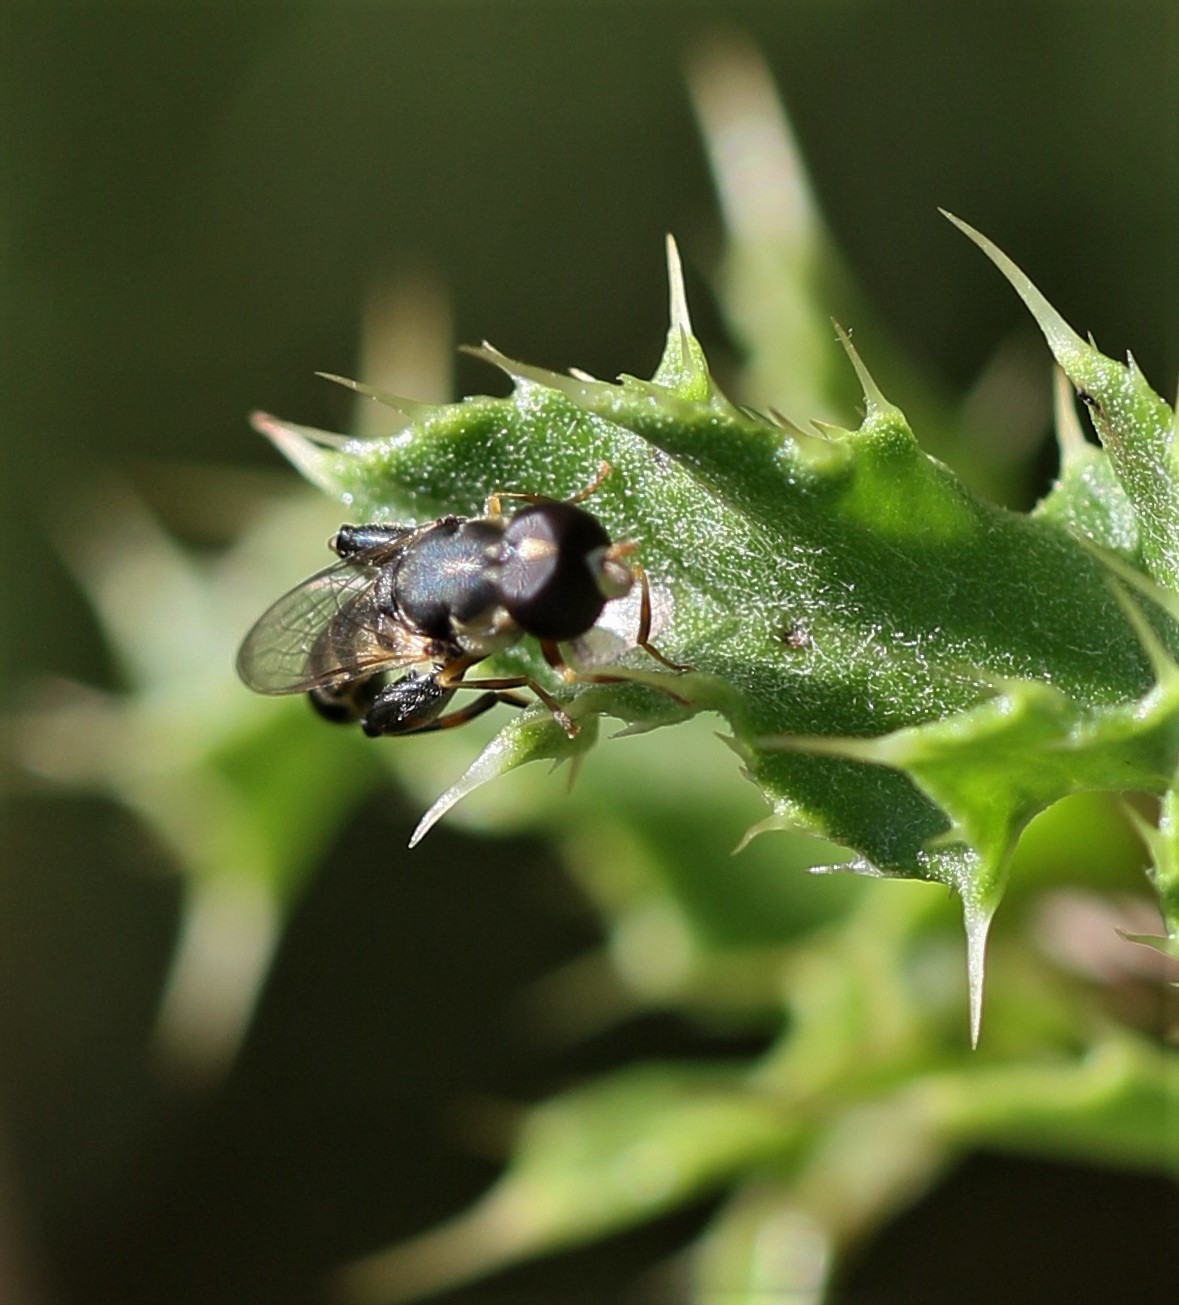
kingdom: Animalia
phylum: Arthropoda
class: Insecta
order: Diptera
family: Syrphidae
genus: Syritta
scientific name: Syritta pipiens
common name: Hover fly
